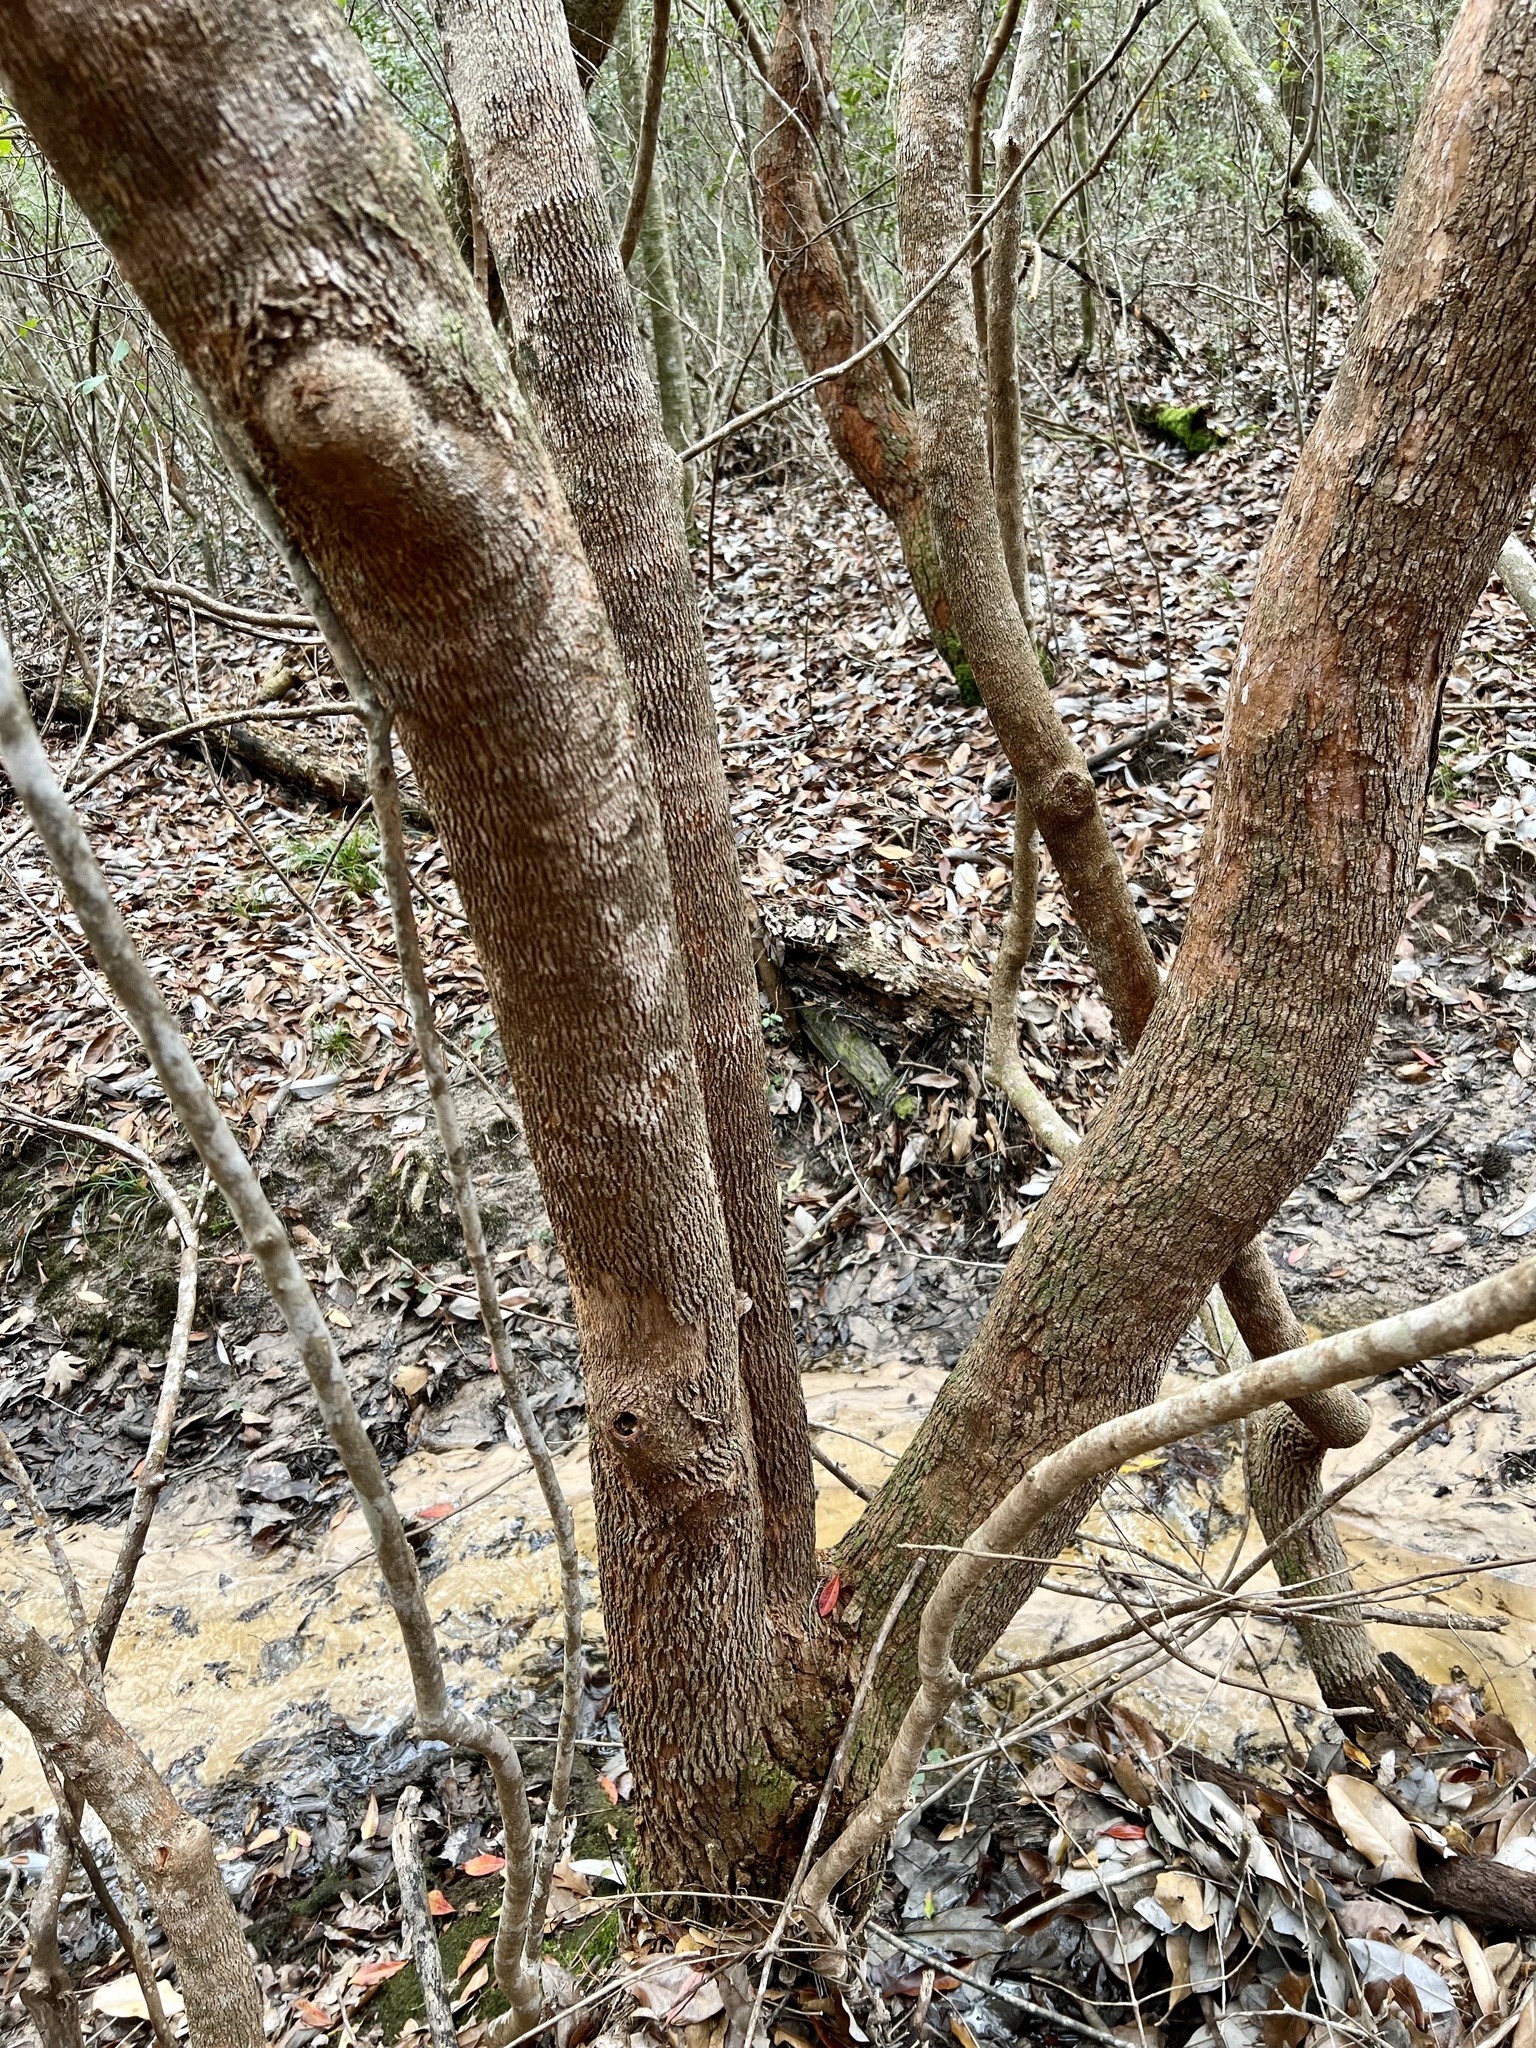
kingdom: Plantae
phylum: Tracheophyta
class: Magnoliopsida
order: Ericales
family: Cyrillaceae
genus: Cyrilla
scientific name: Cyrilla racemiflora
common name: Black titi
